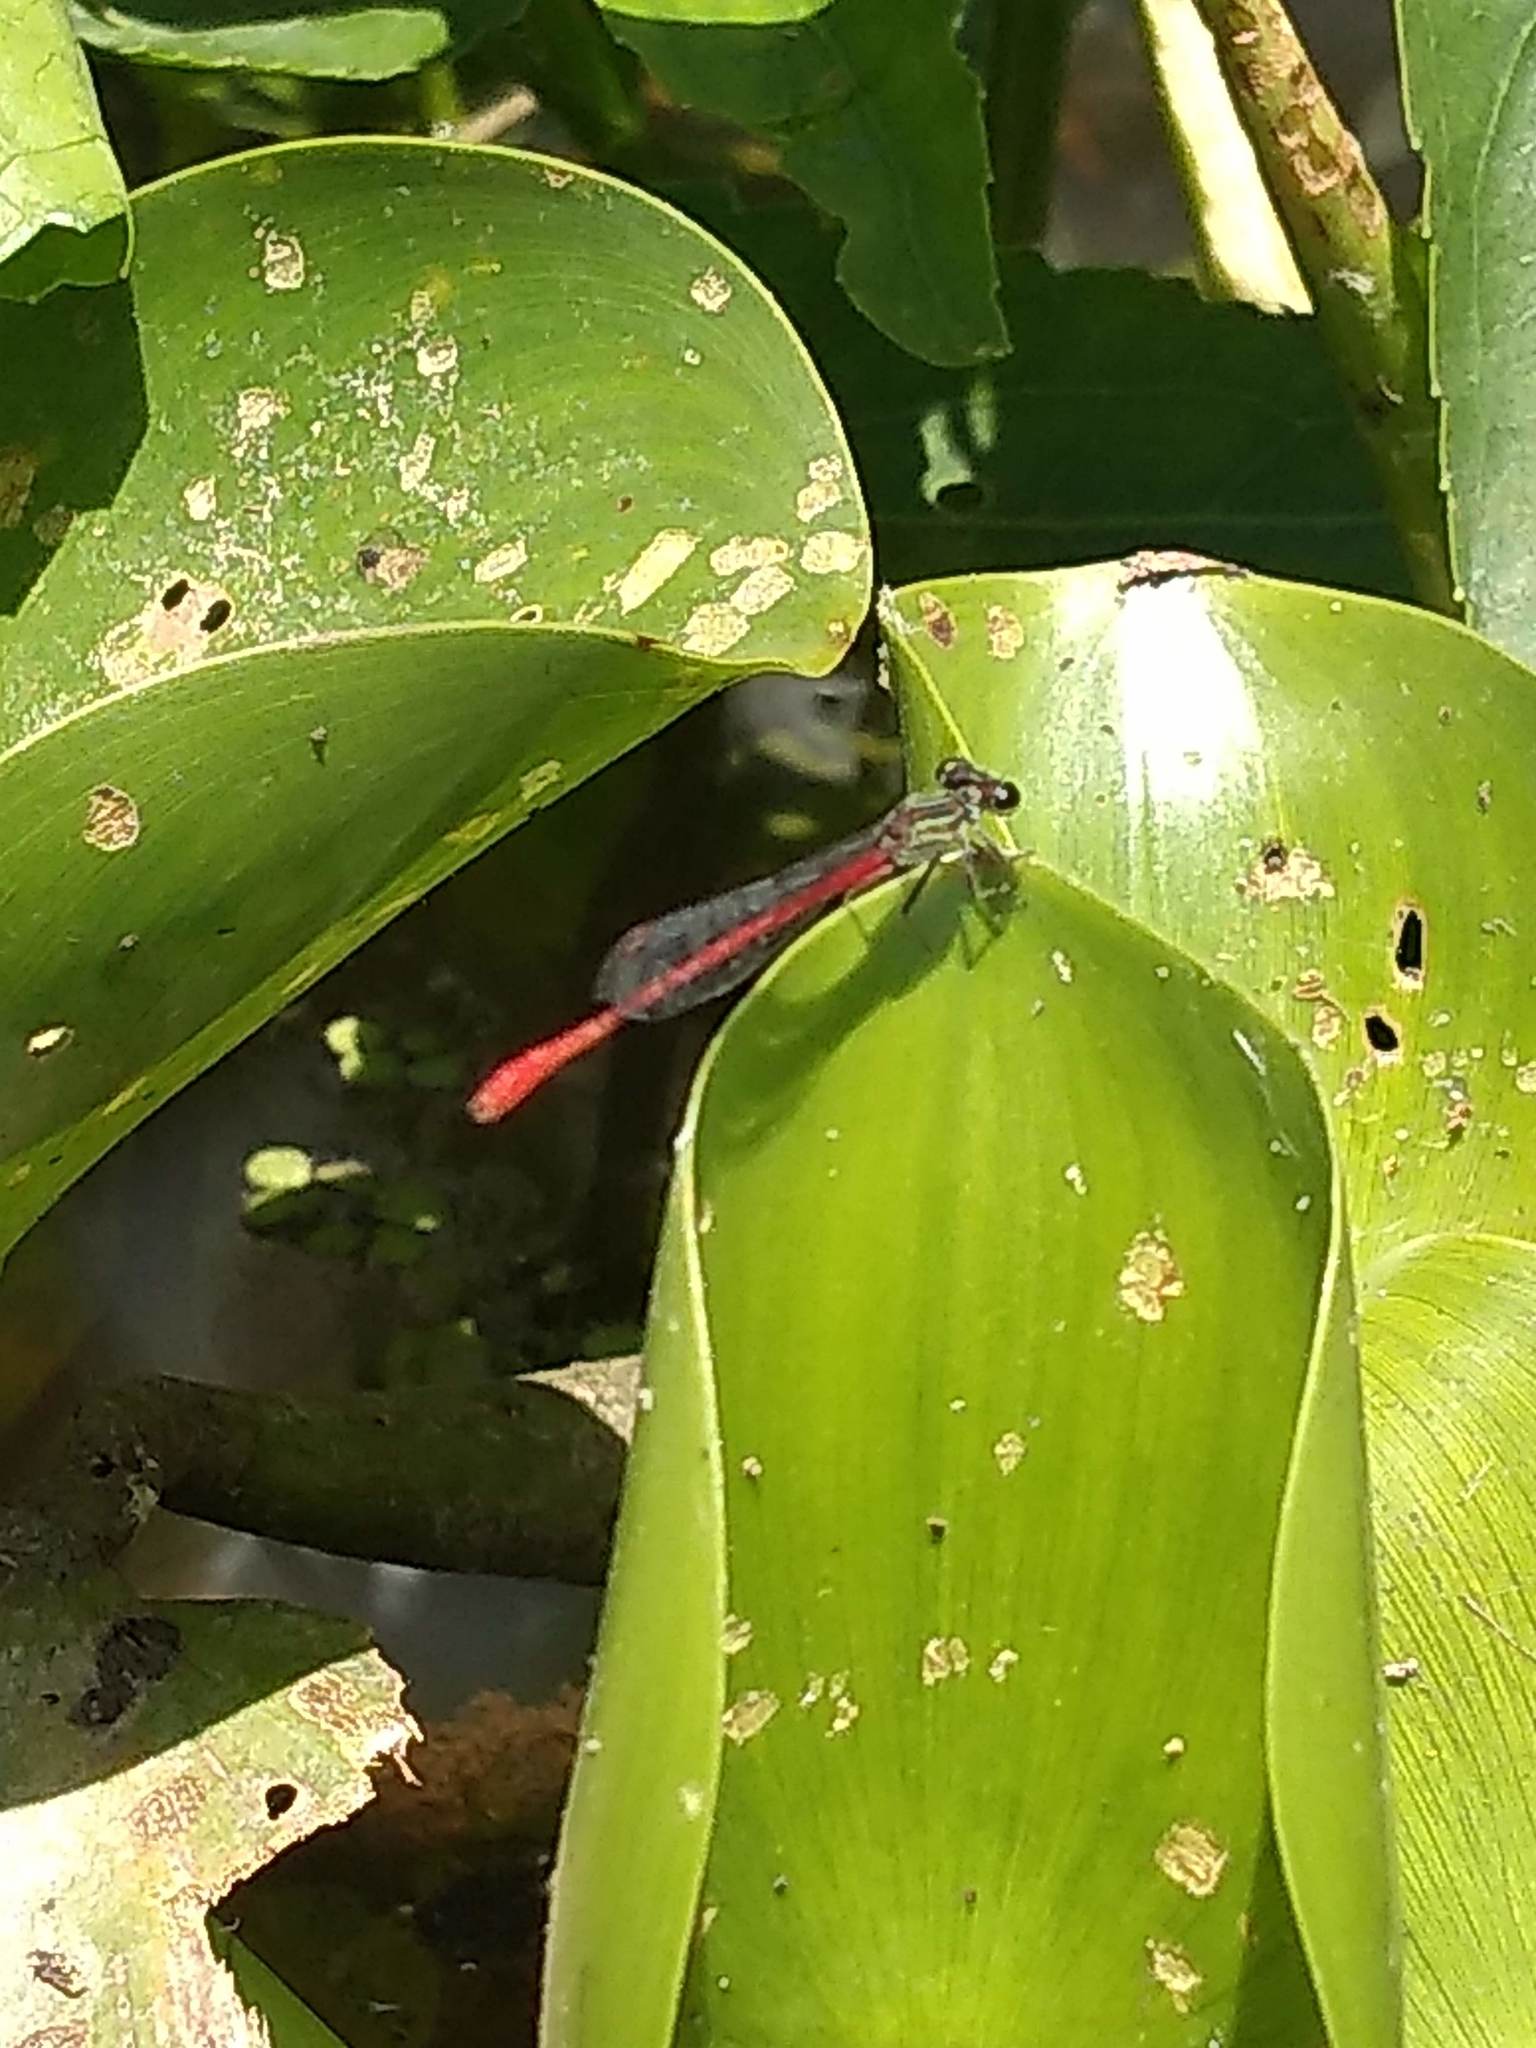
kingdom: Animalia
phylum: Arthropoda
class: Insecta
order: Odonata
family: Coenagrionidae
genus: Telebasis
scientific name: Telebasis willinki
